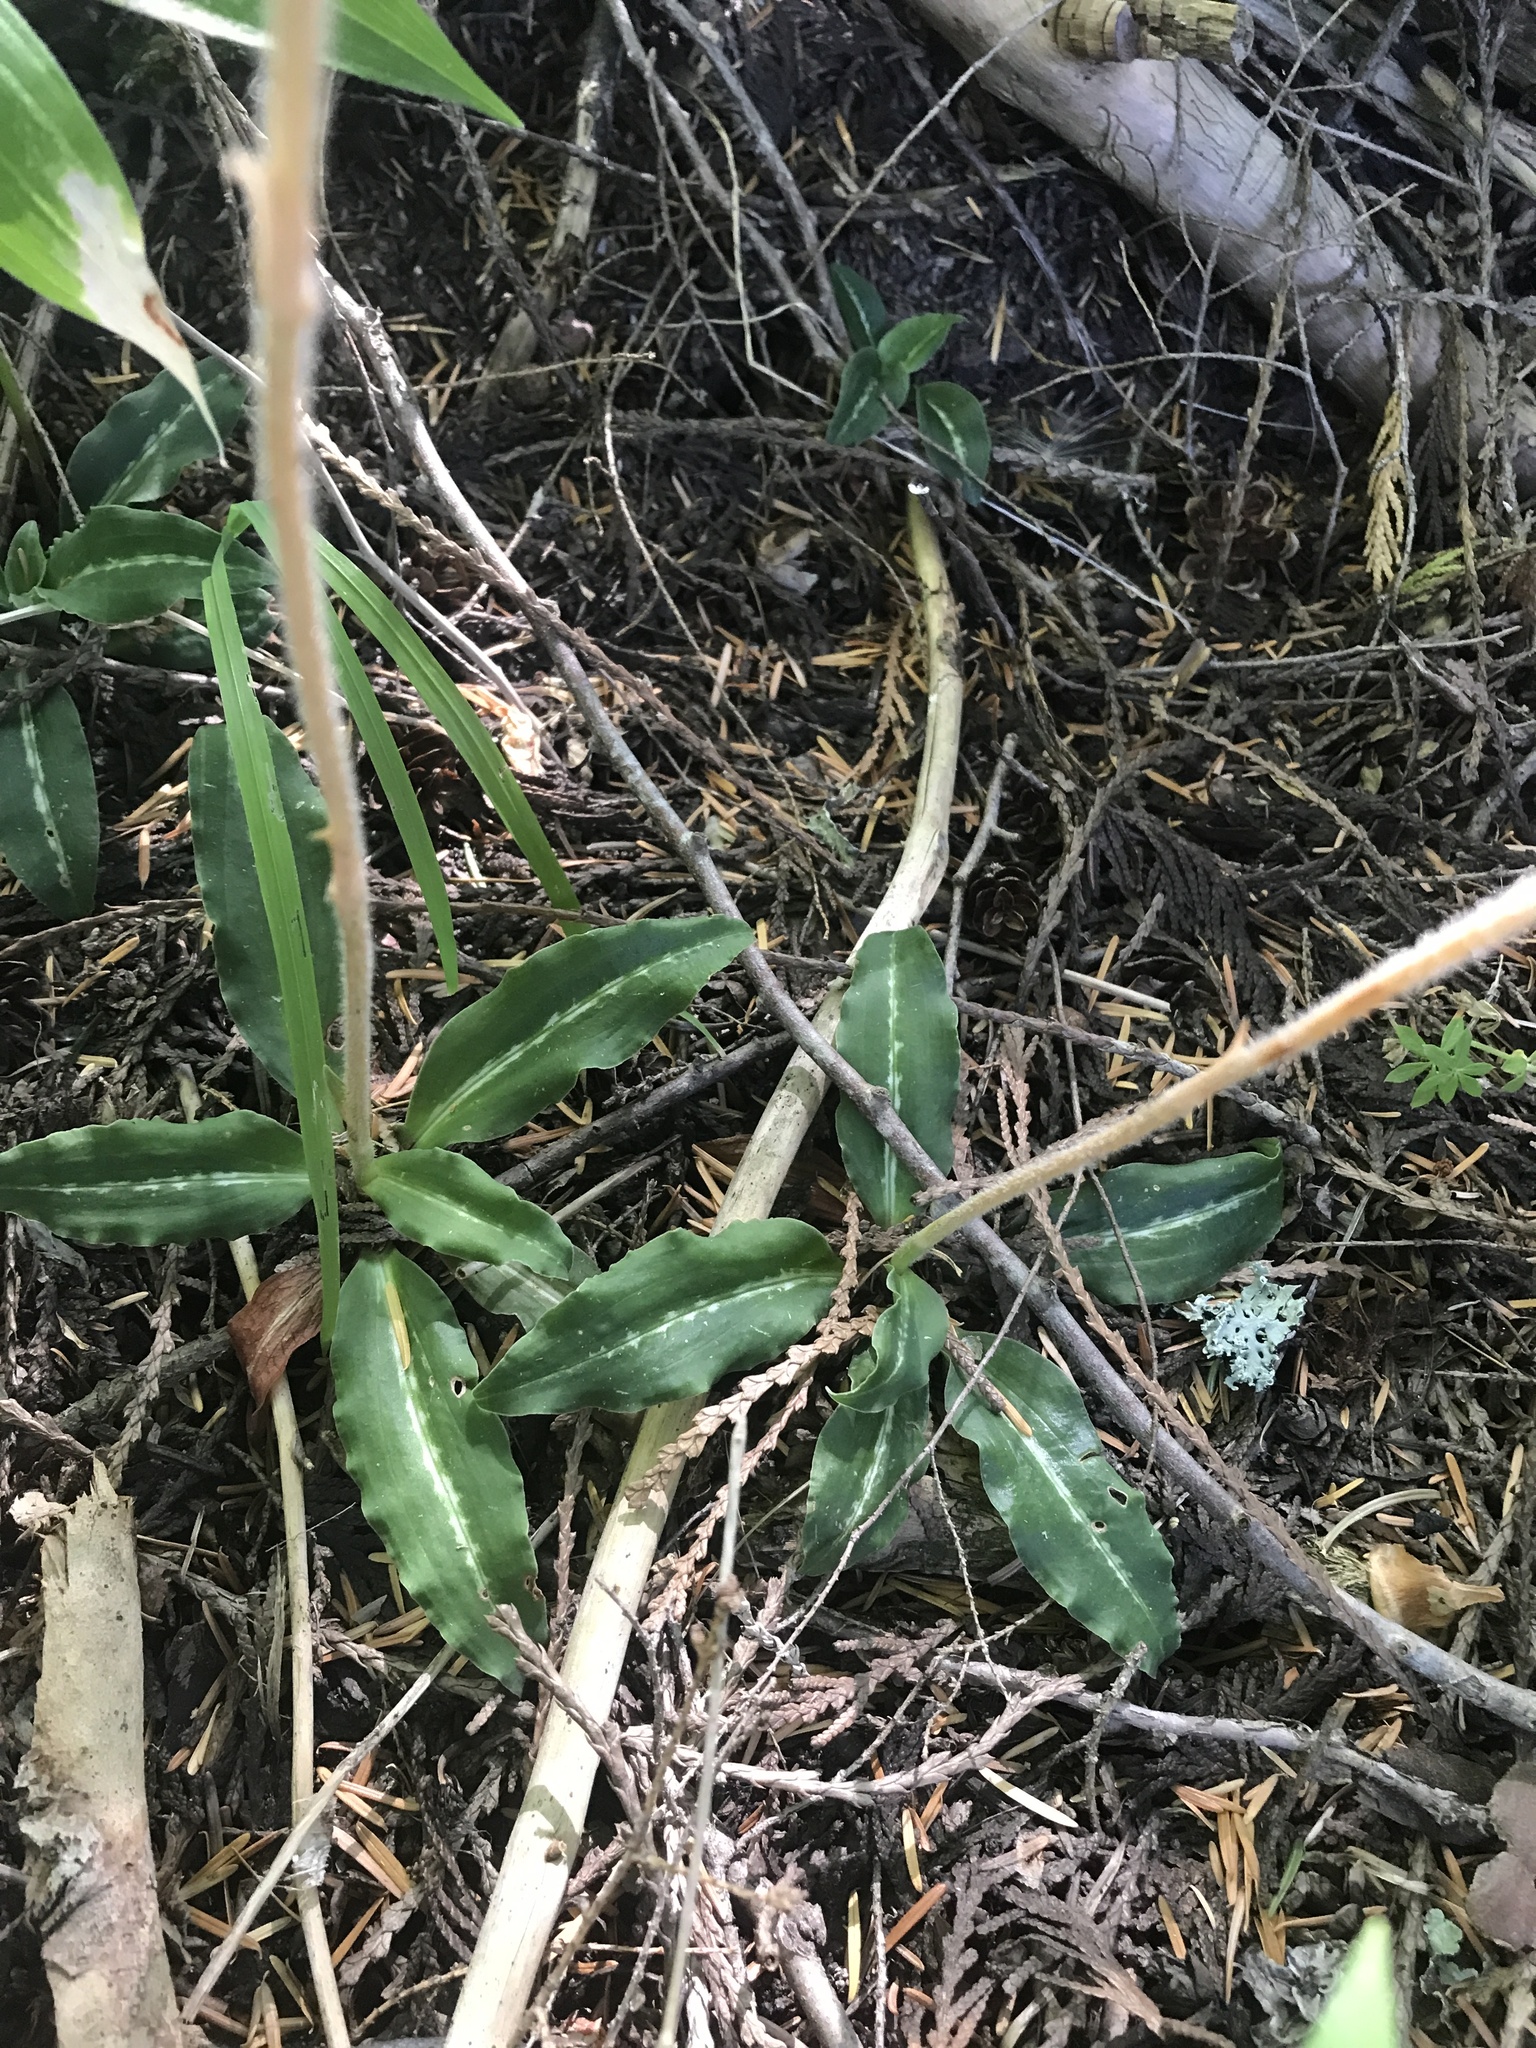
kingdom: Plantae
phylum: Tracheophyta
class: Liliopsida
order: Asparagales
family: Orchidaceae
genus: Goodyera
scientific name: Goodyera oblongifolia
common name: Giant rattlesnake-plantain
